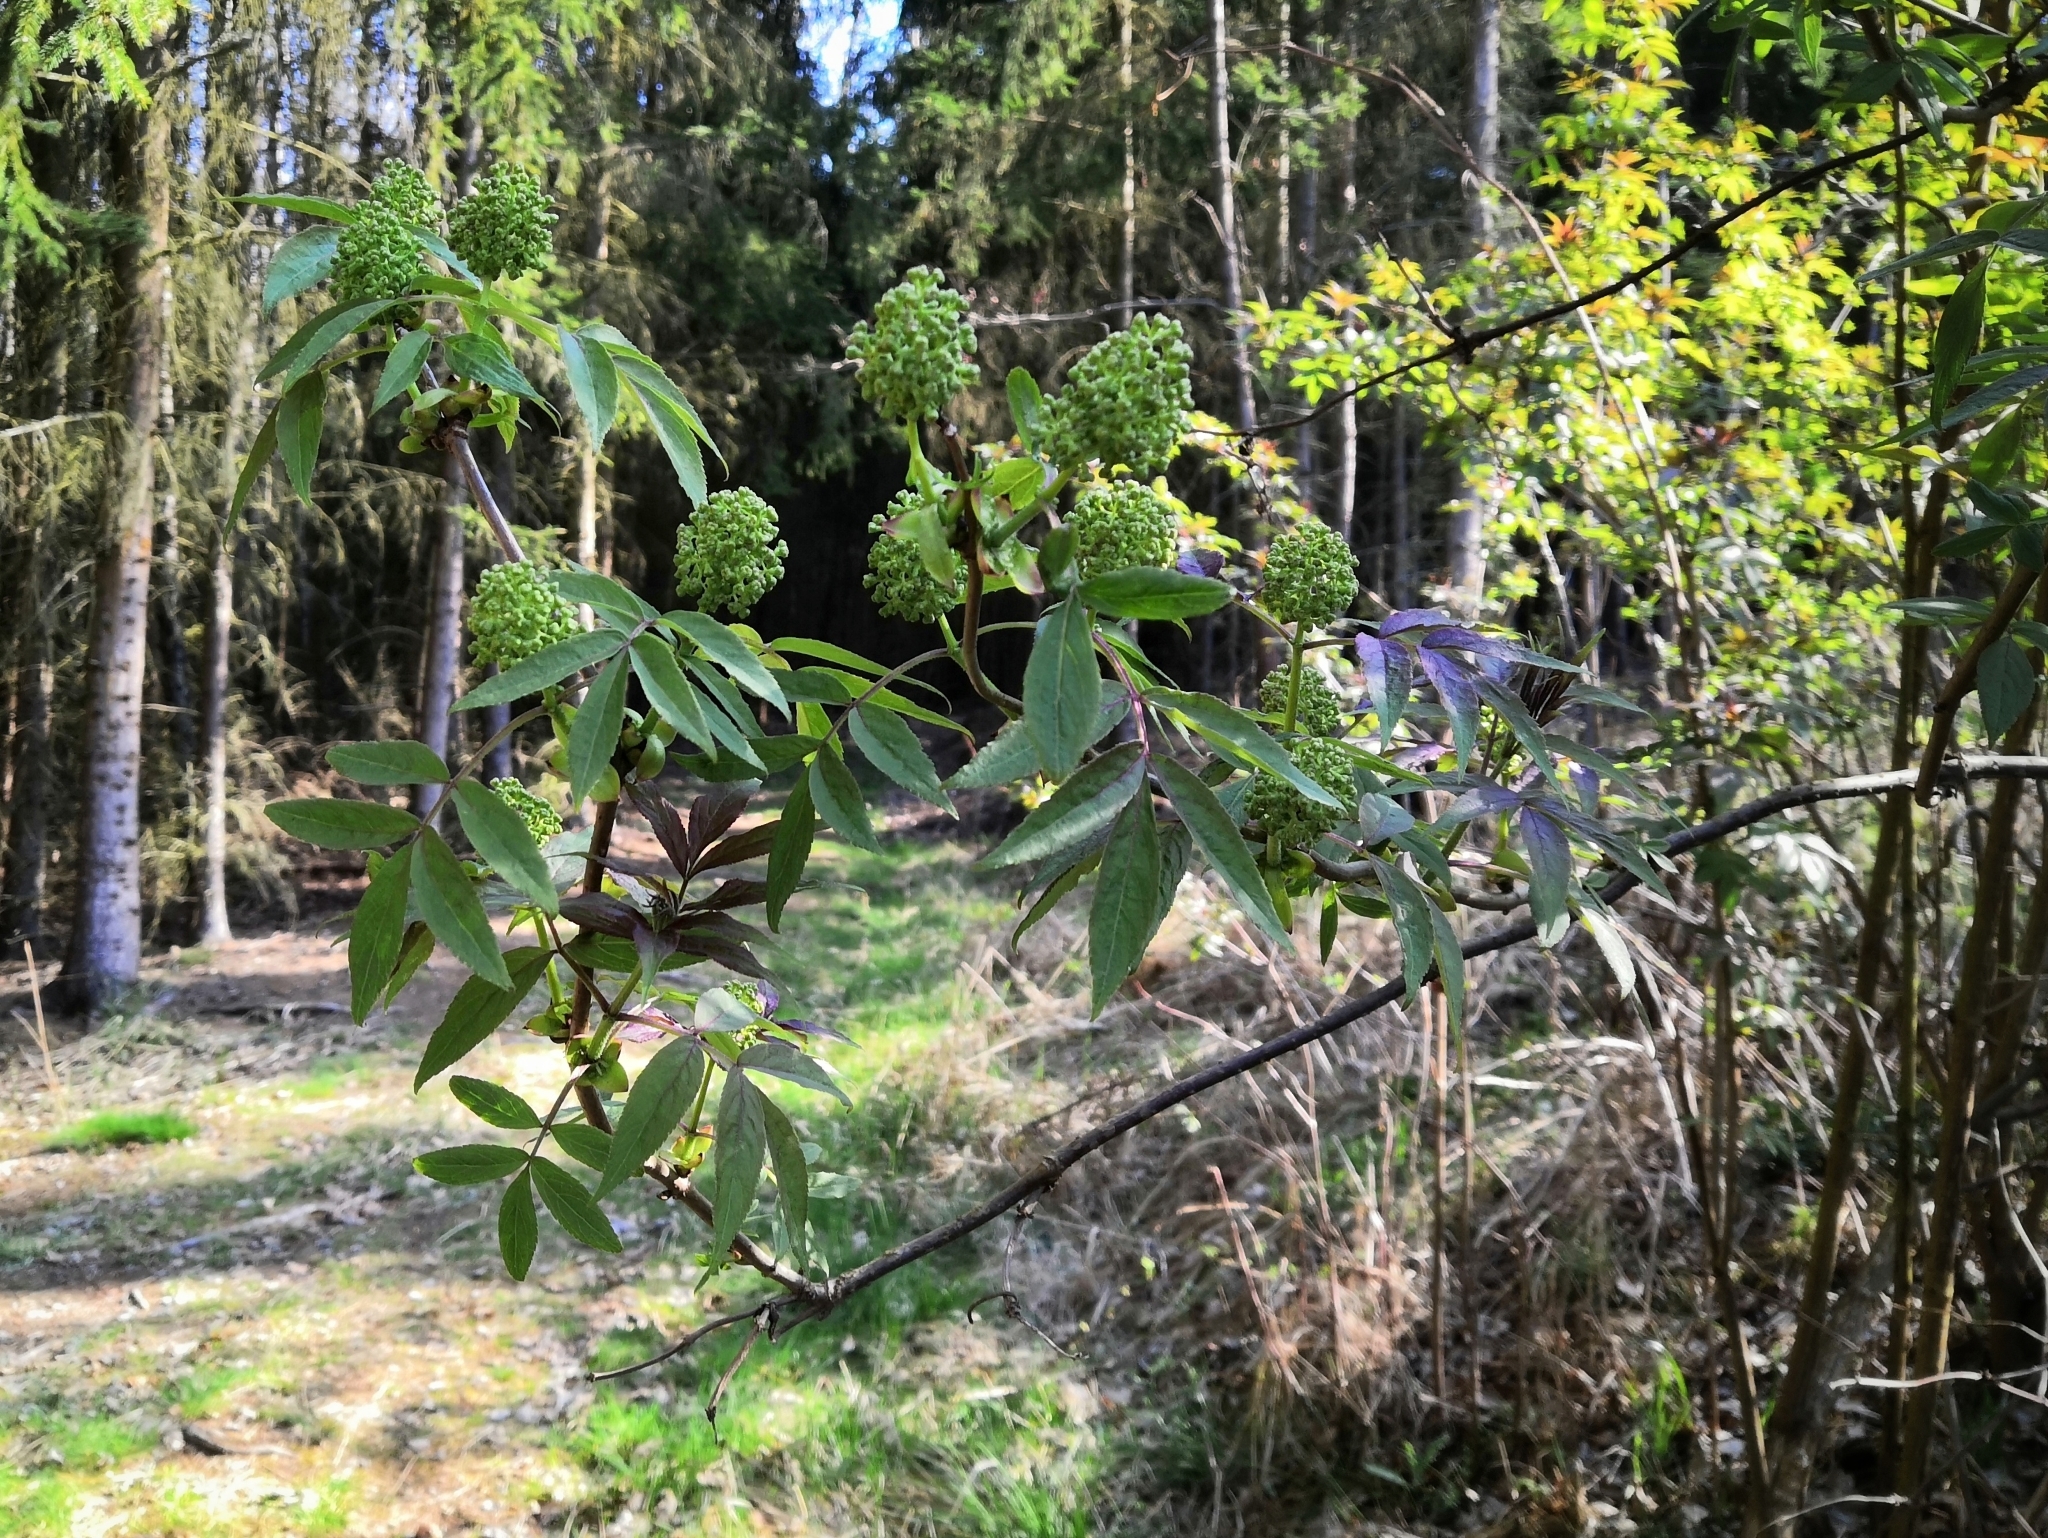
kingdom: Plantae
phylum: Tracheophyta
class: Magnoliopsida
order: Dipsacales
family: Viburnaceae
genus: Sambucus
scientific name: Sambucus racemosa
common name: Red-berried elder
